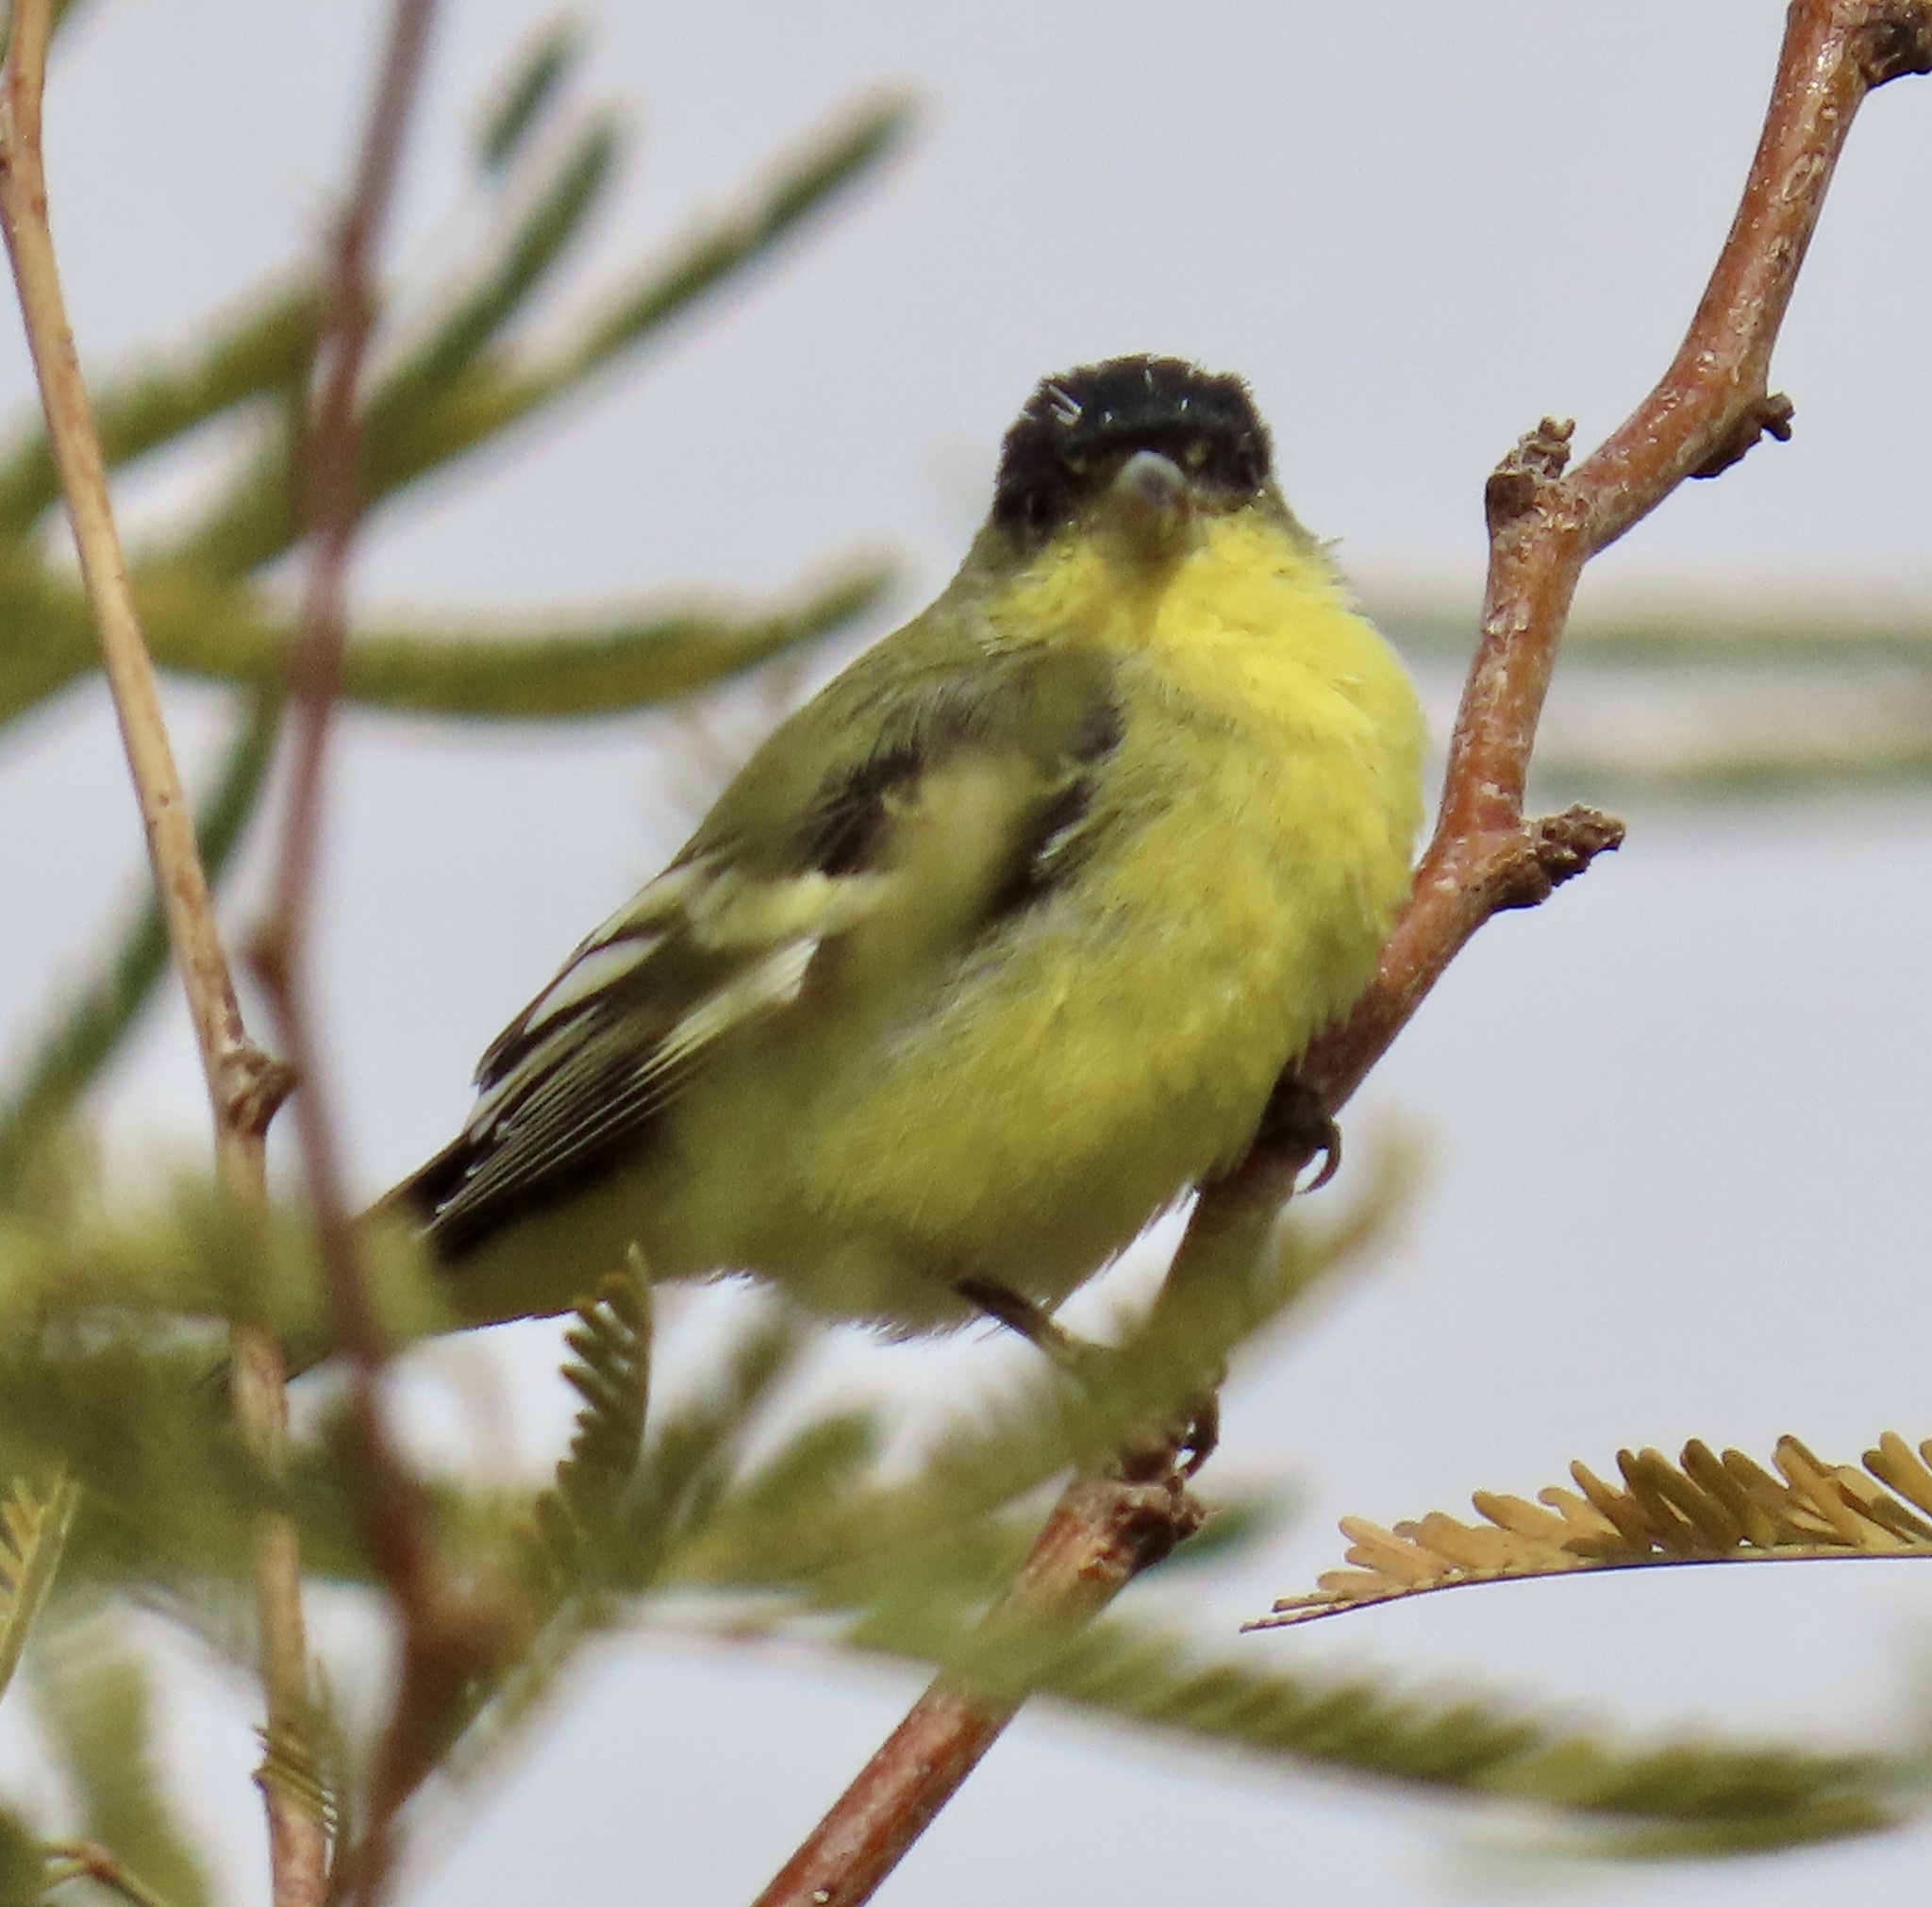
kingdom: Animalia
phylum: Chordata
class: Aves
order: Passeriformes
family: Fringillidae
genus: Spinus
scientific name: Spinus psaltria
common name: Lesser goldfinch
